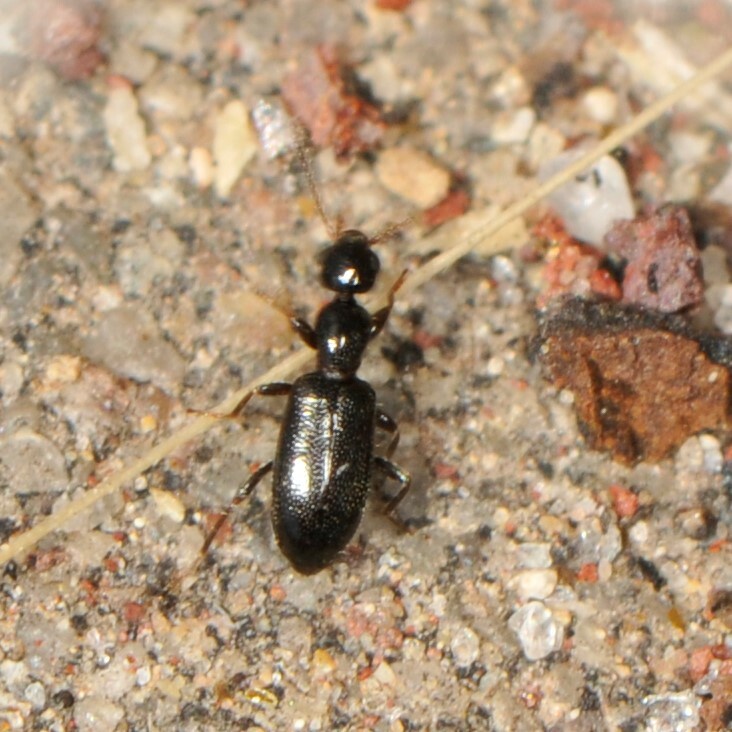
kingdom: Animalia
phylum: Arthropoda
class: Insecta
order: Coleoptera
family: Anthicidae
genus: Vacusus
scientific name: Vacusus confinis
